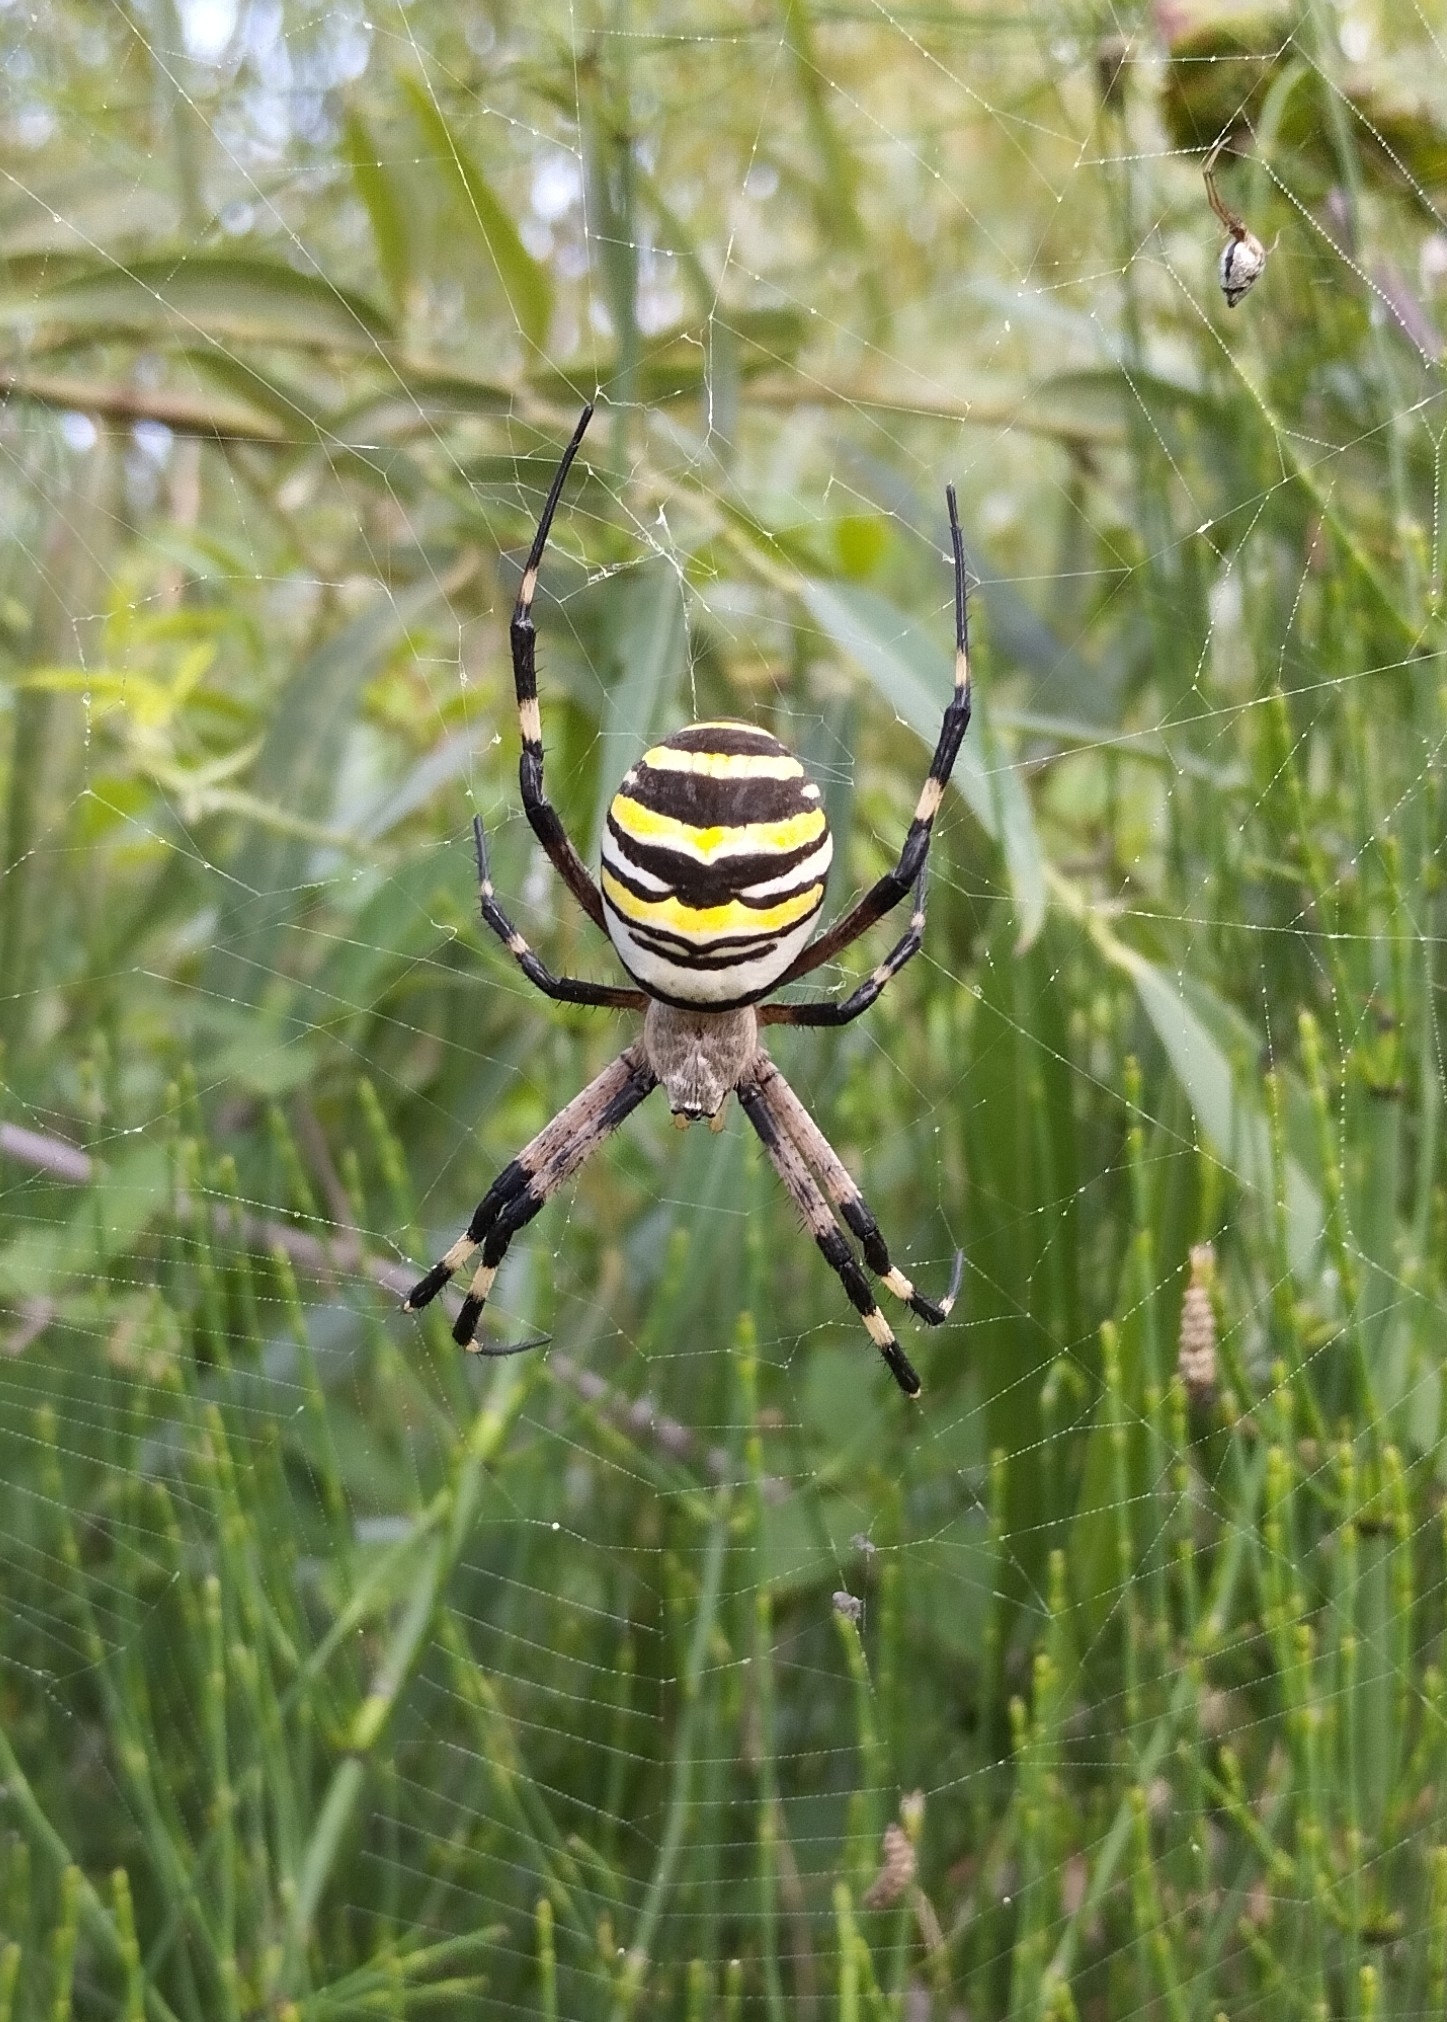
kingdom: Animalia
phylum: Arthropoda
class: Arachnida
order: Araneae
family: Araneidae
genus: Argiope
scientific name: Argiope bruennichi
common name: Wasp spider
